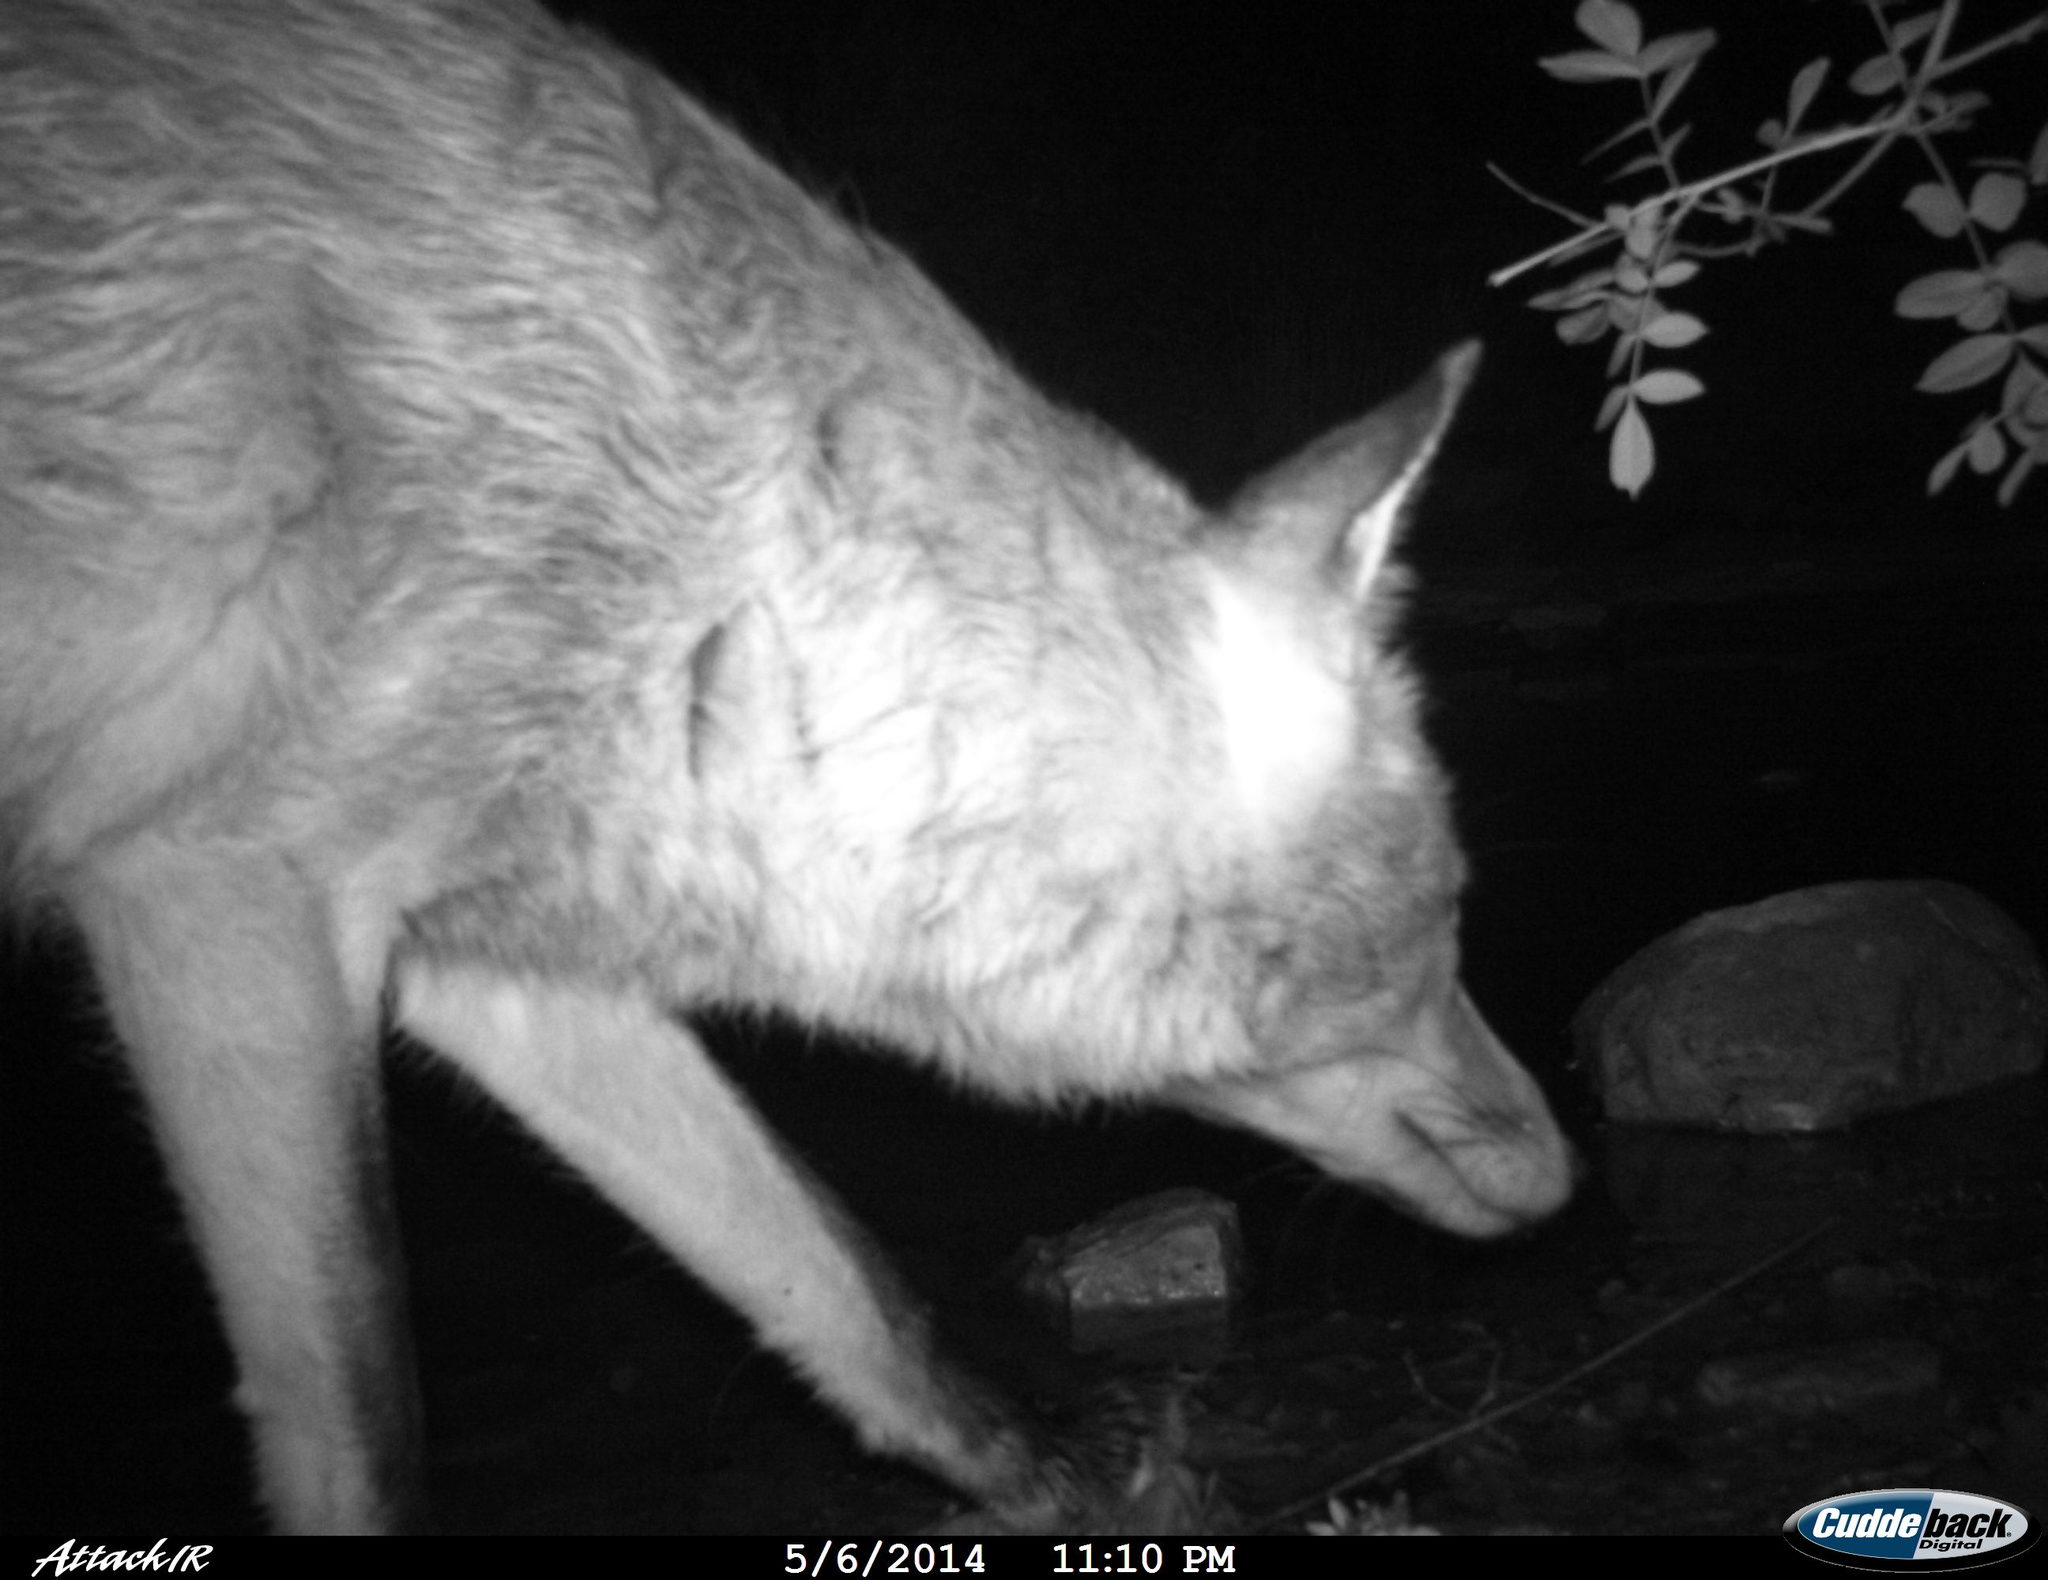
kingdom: Animalia
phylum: Chordata
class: Mammalia
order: Carnivora
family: Canidae
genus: Vulpes
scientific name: Vulpes vulpes
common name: Red fox
